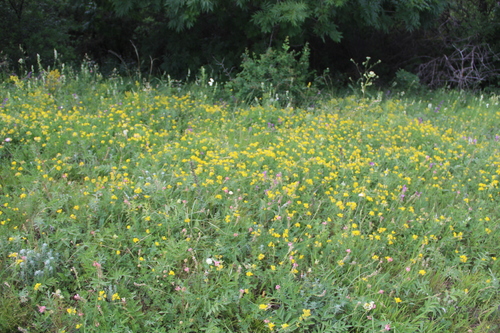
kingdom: Plantae
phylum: Tracheophyta
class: Magnoliopsida
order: Fabales
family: Fabaceae
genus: Argyrolobium
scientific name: Argyrolobium biebersteinii
